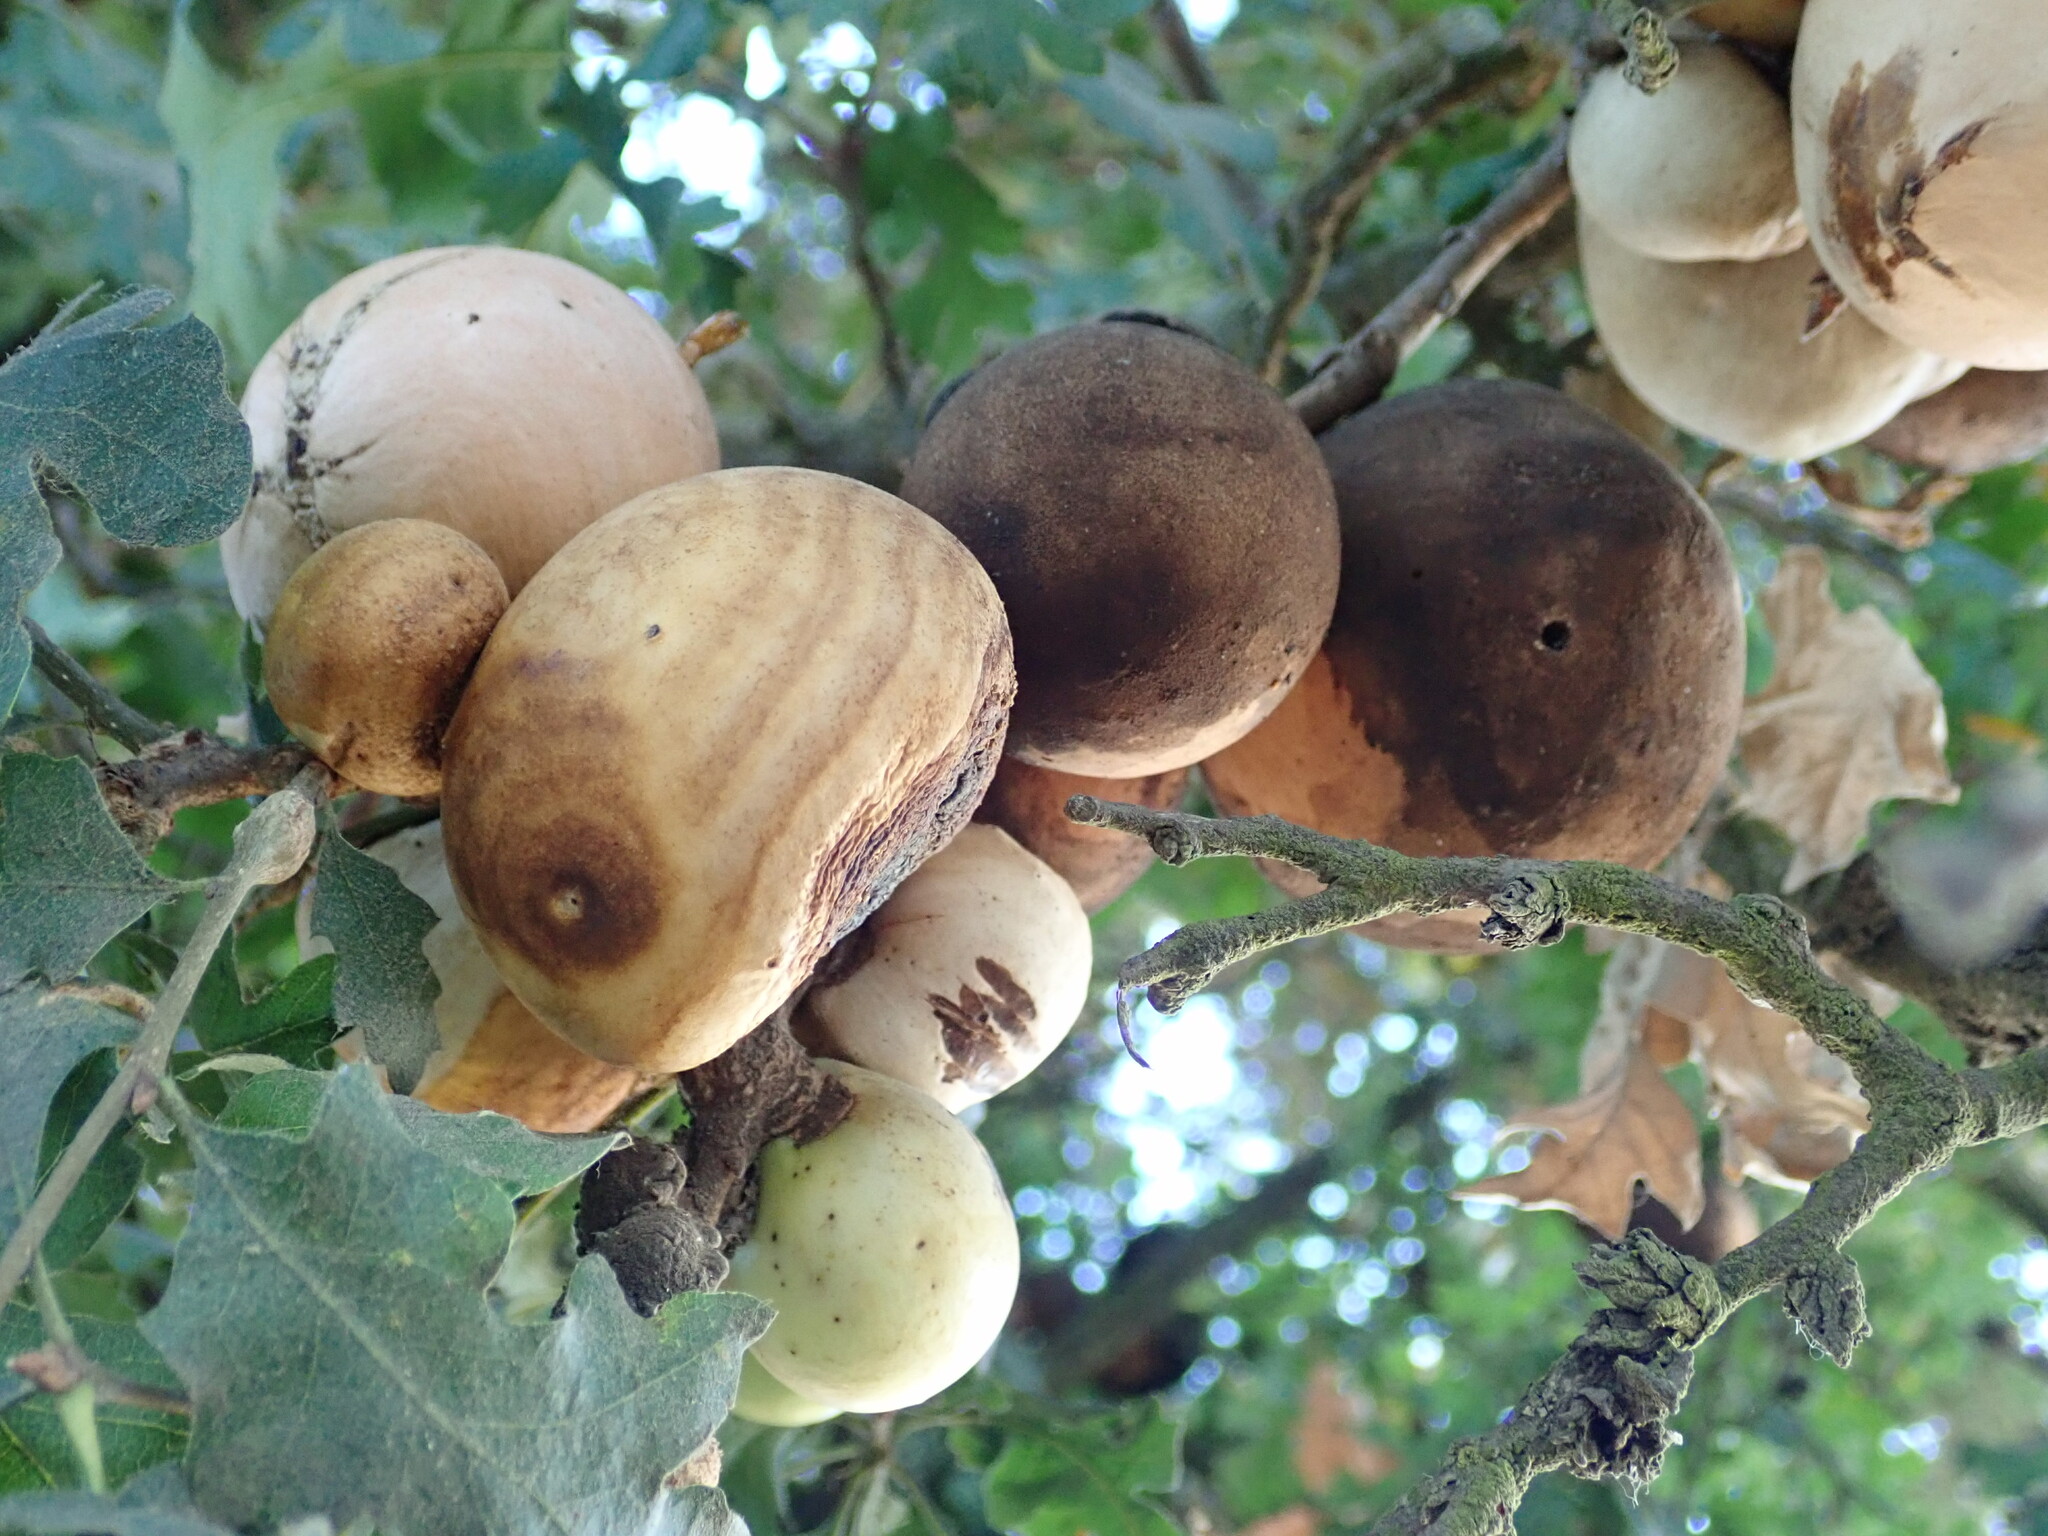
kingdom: Animalia
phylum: Arthropoda
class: Insecta
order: Hymenoptera
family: Cynipidae
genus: Andricus
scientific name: Andricus quercuscalifornicus
